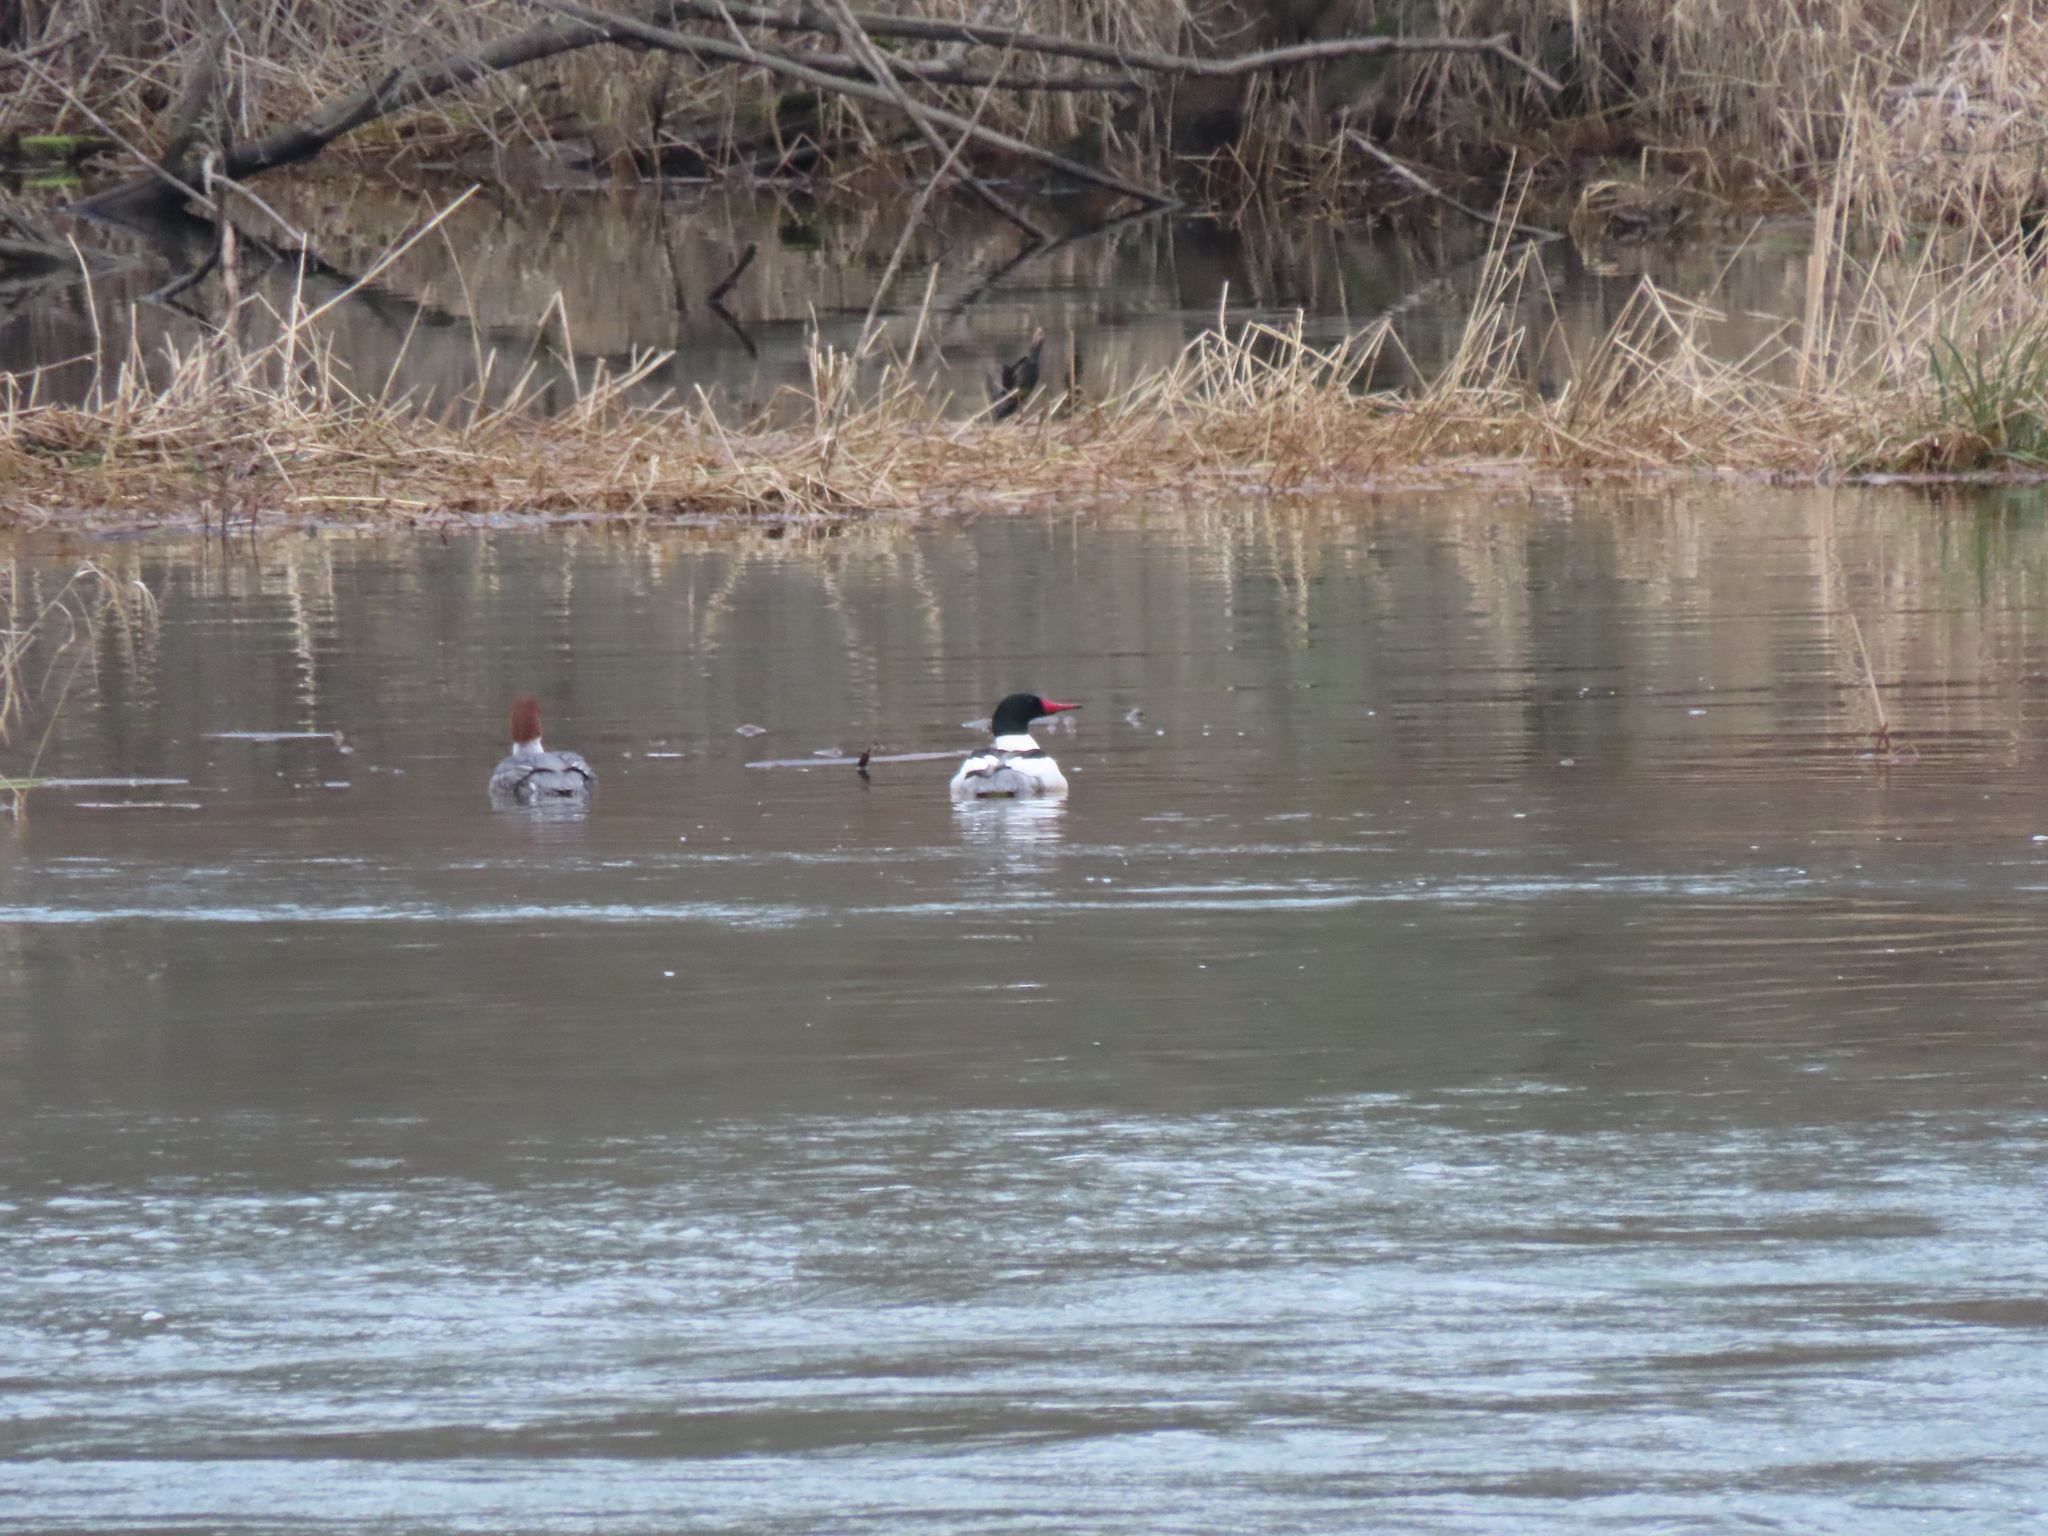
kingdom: Animalia
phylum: Chordata
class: Aves
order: Anseriformes
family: Anatidae
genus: Mergus
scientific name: Mergus merganser
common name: Common merganser
